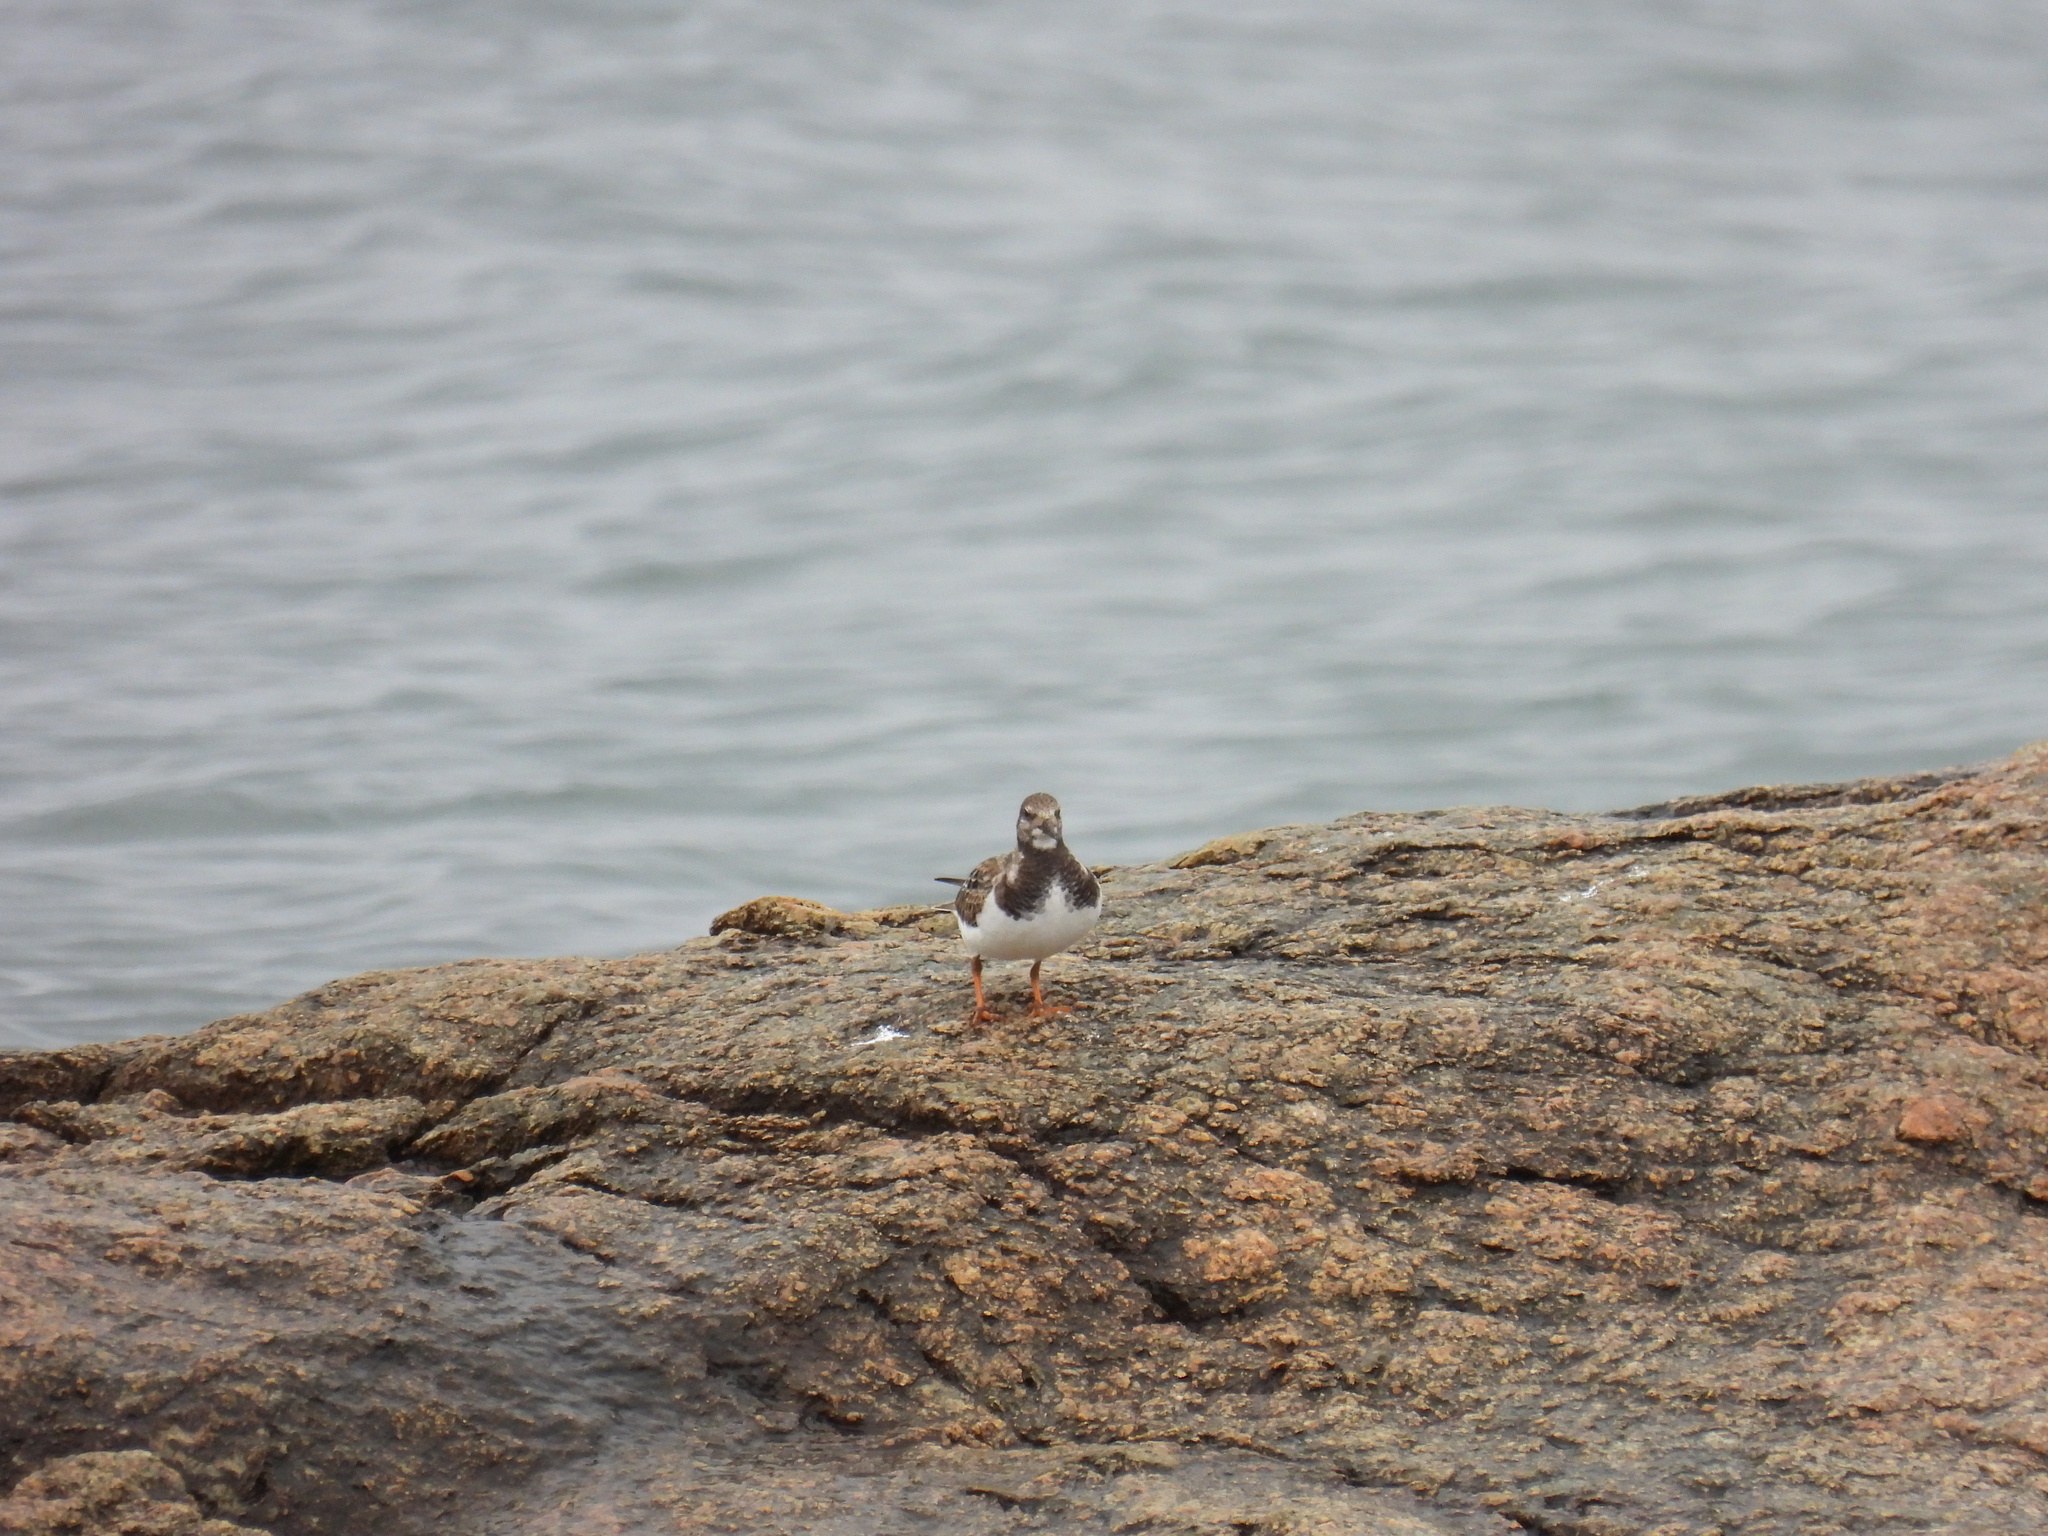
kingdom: Animalia
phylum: Chordata
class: Aves
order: Charadriiformes
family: Scolopacidae
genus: Arenaria
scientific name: Arenaria interpres
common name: Ruddy turnstone
